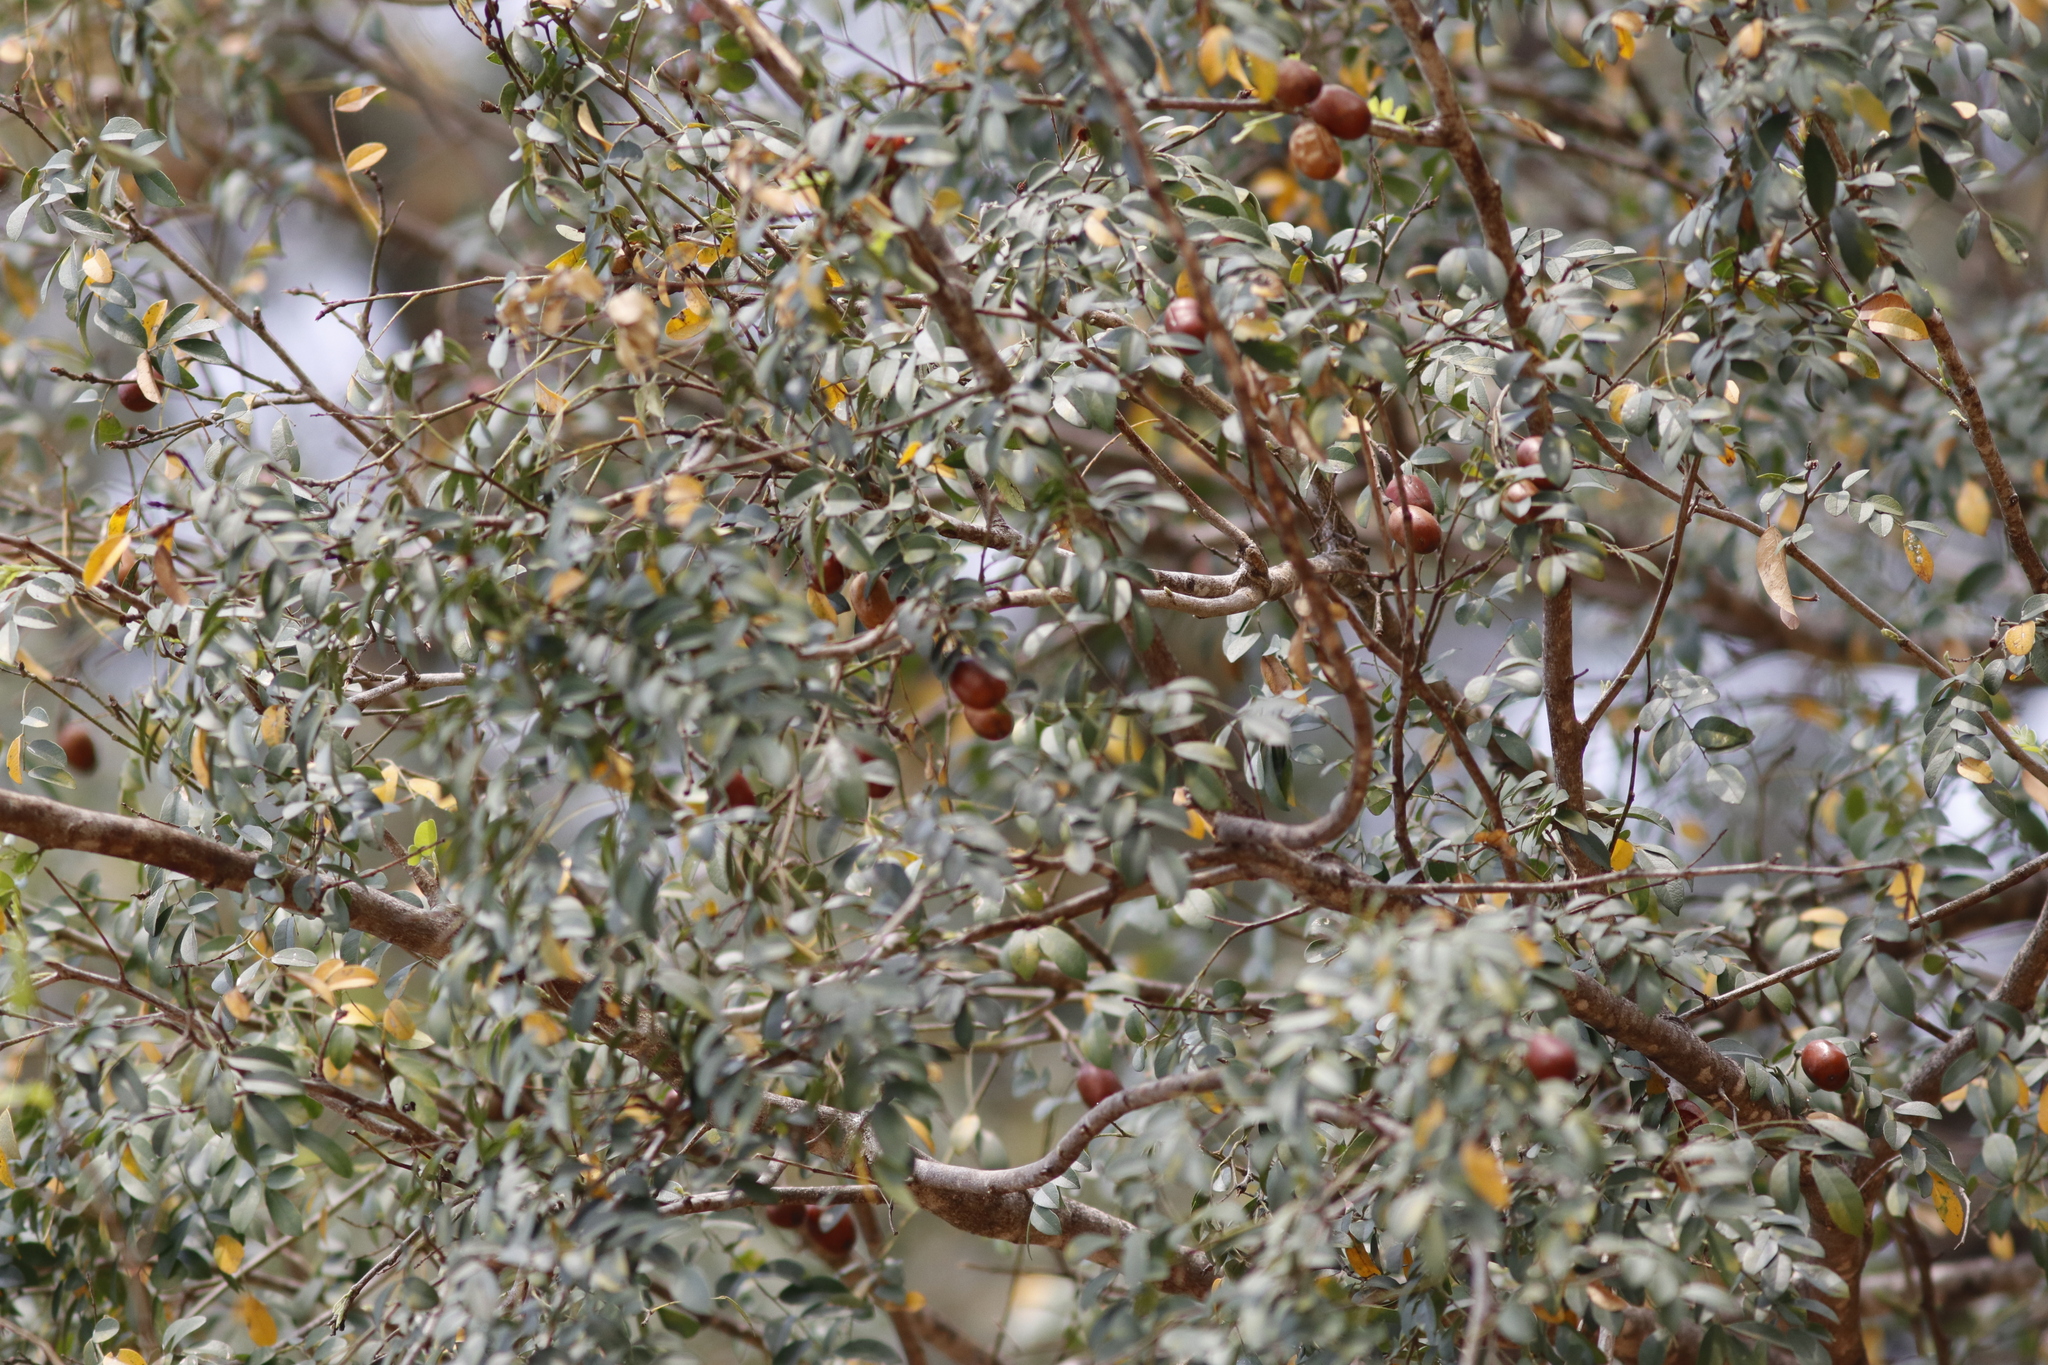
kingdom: Plantae
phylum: Tracheophyta
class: Magnoliopsida
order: Fabales
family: Fabaceae
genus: Xanthocercis
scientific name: Xanthocercis zambesiaca
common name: Nyala-tree
